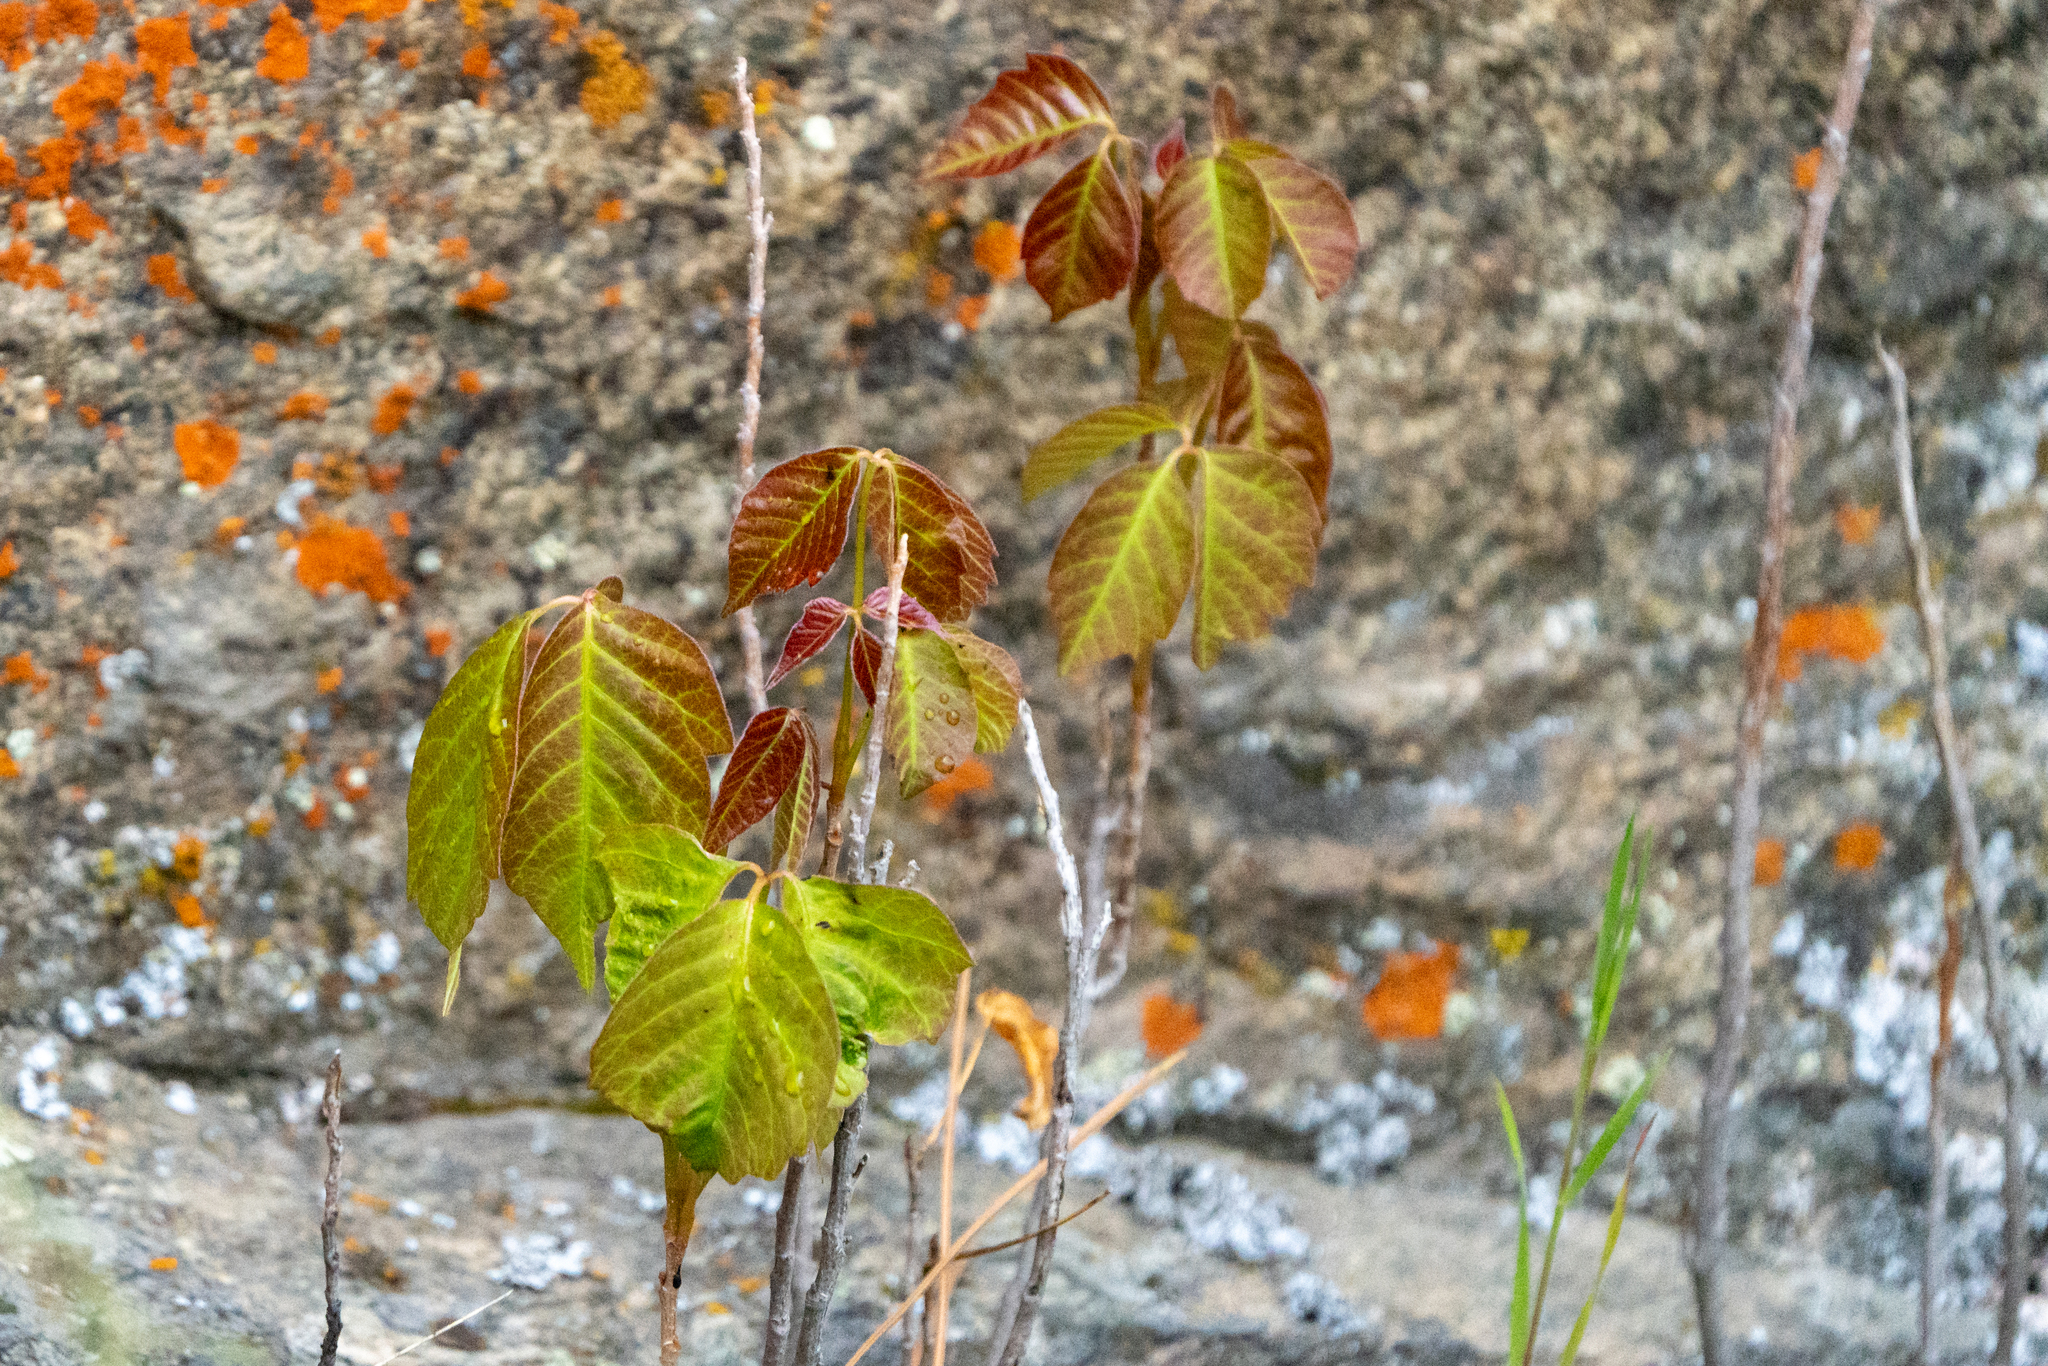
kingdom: Plantae
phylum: Tracheophyta
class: Magnoliopsida
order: Sapindales
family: Anacardiaceae
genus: Toxicodendron
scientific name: Toxicodendron rydbergii
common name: Rydberg's poison-ivy
